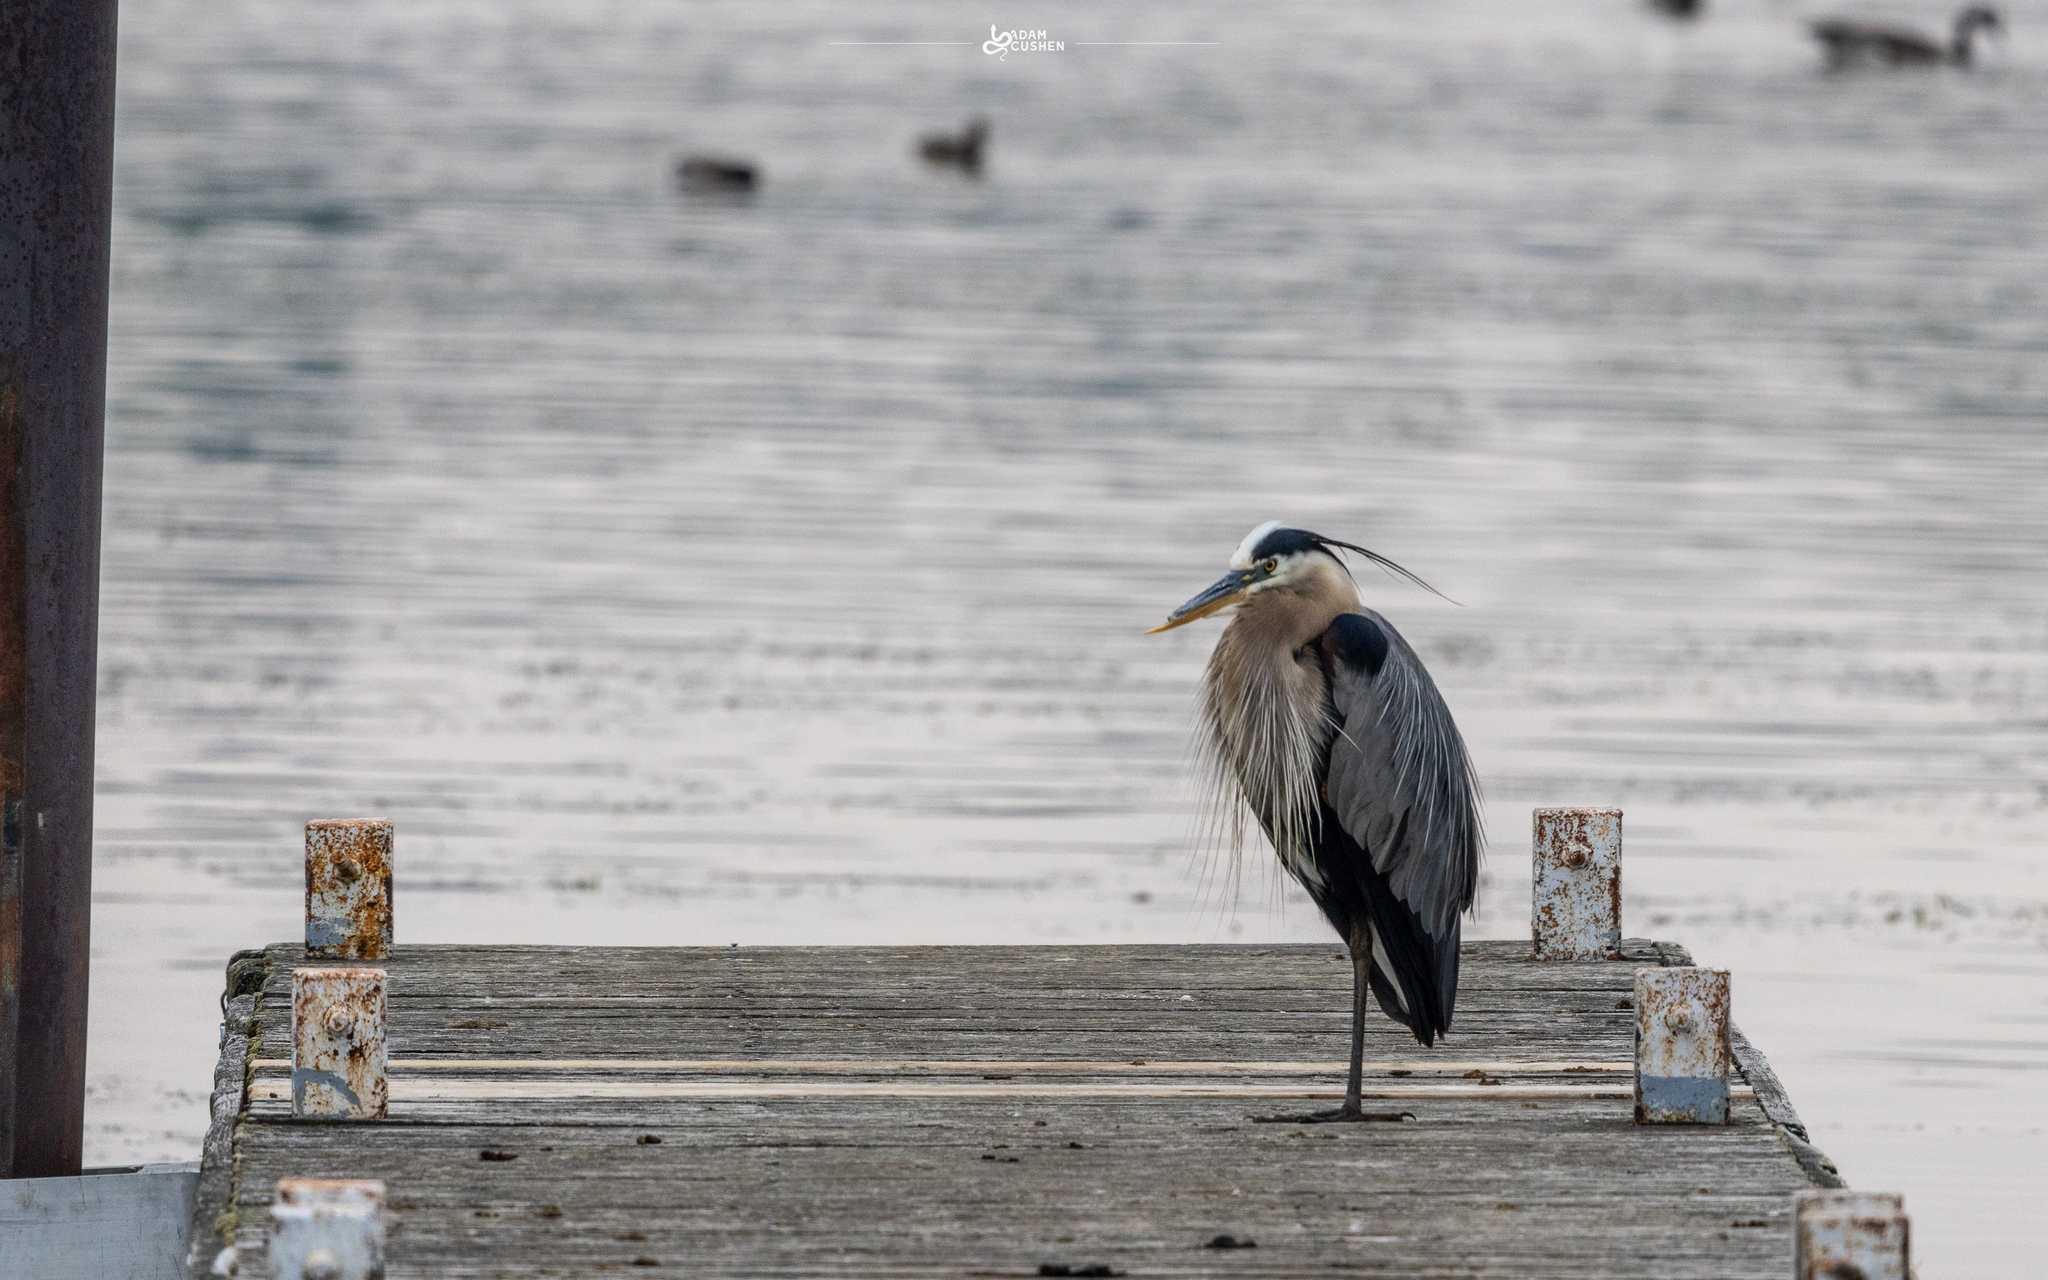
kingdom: Animalia
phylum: Chordata
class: Aves
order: Pelecaniformes
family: Ardeidae
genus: Ardea
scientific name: Ardea herodias
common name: Great blue heron
